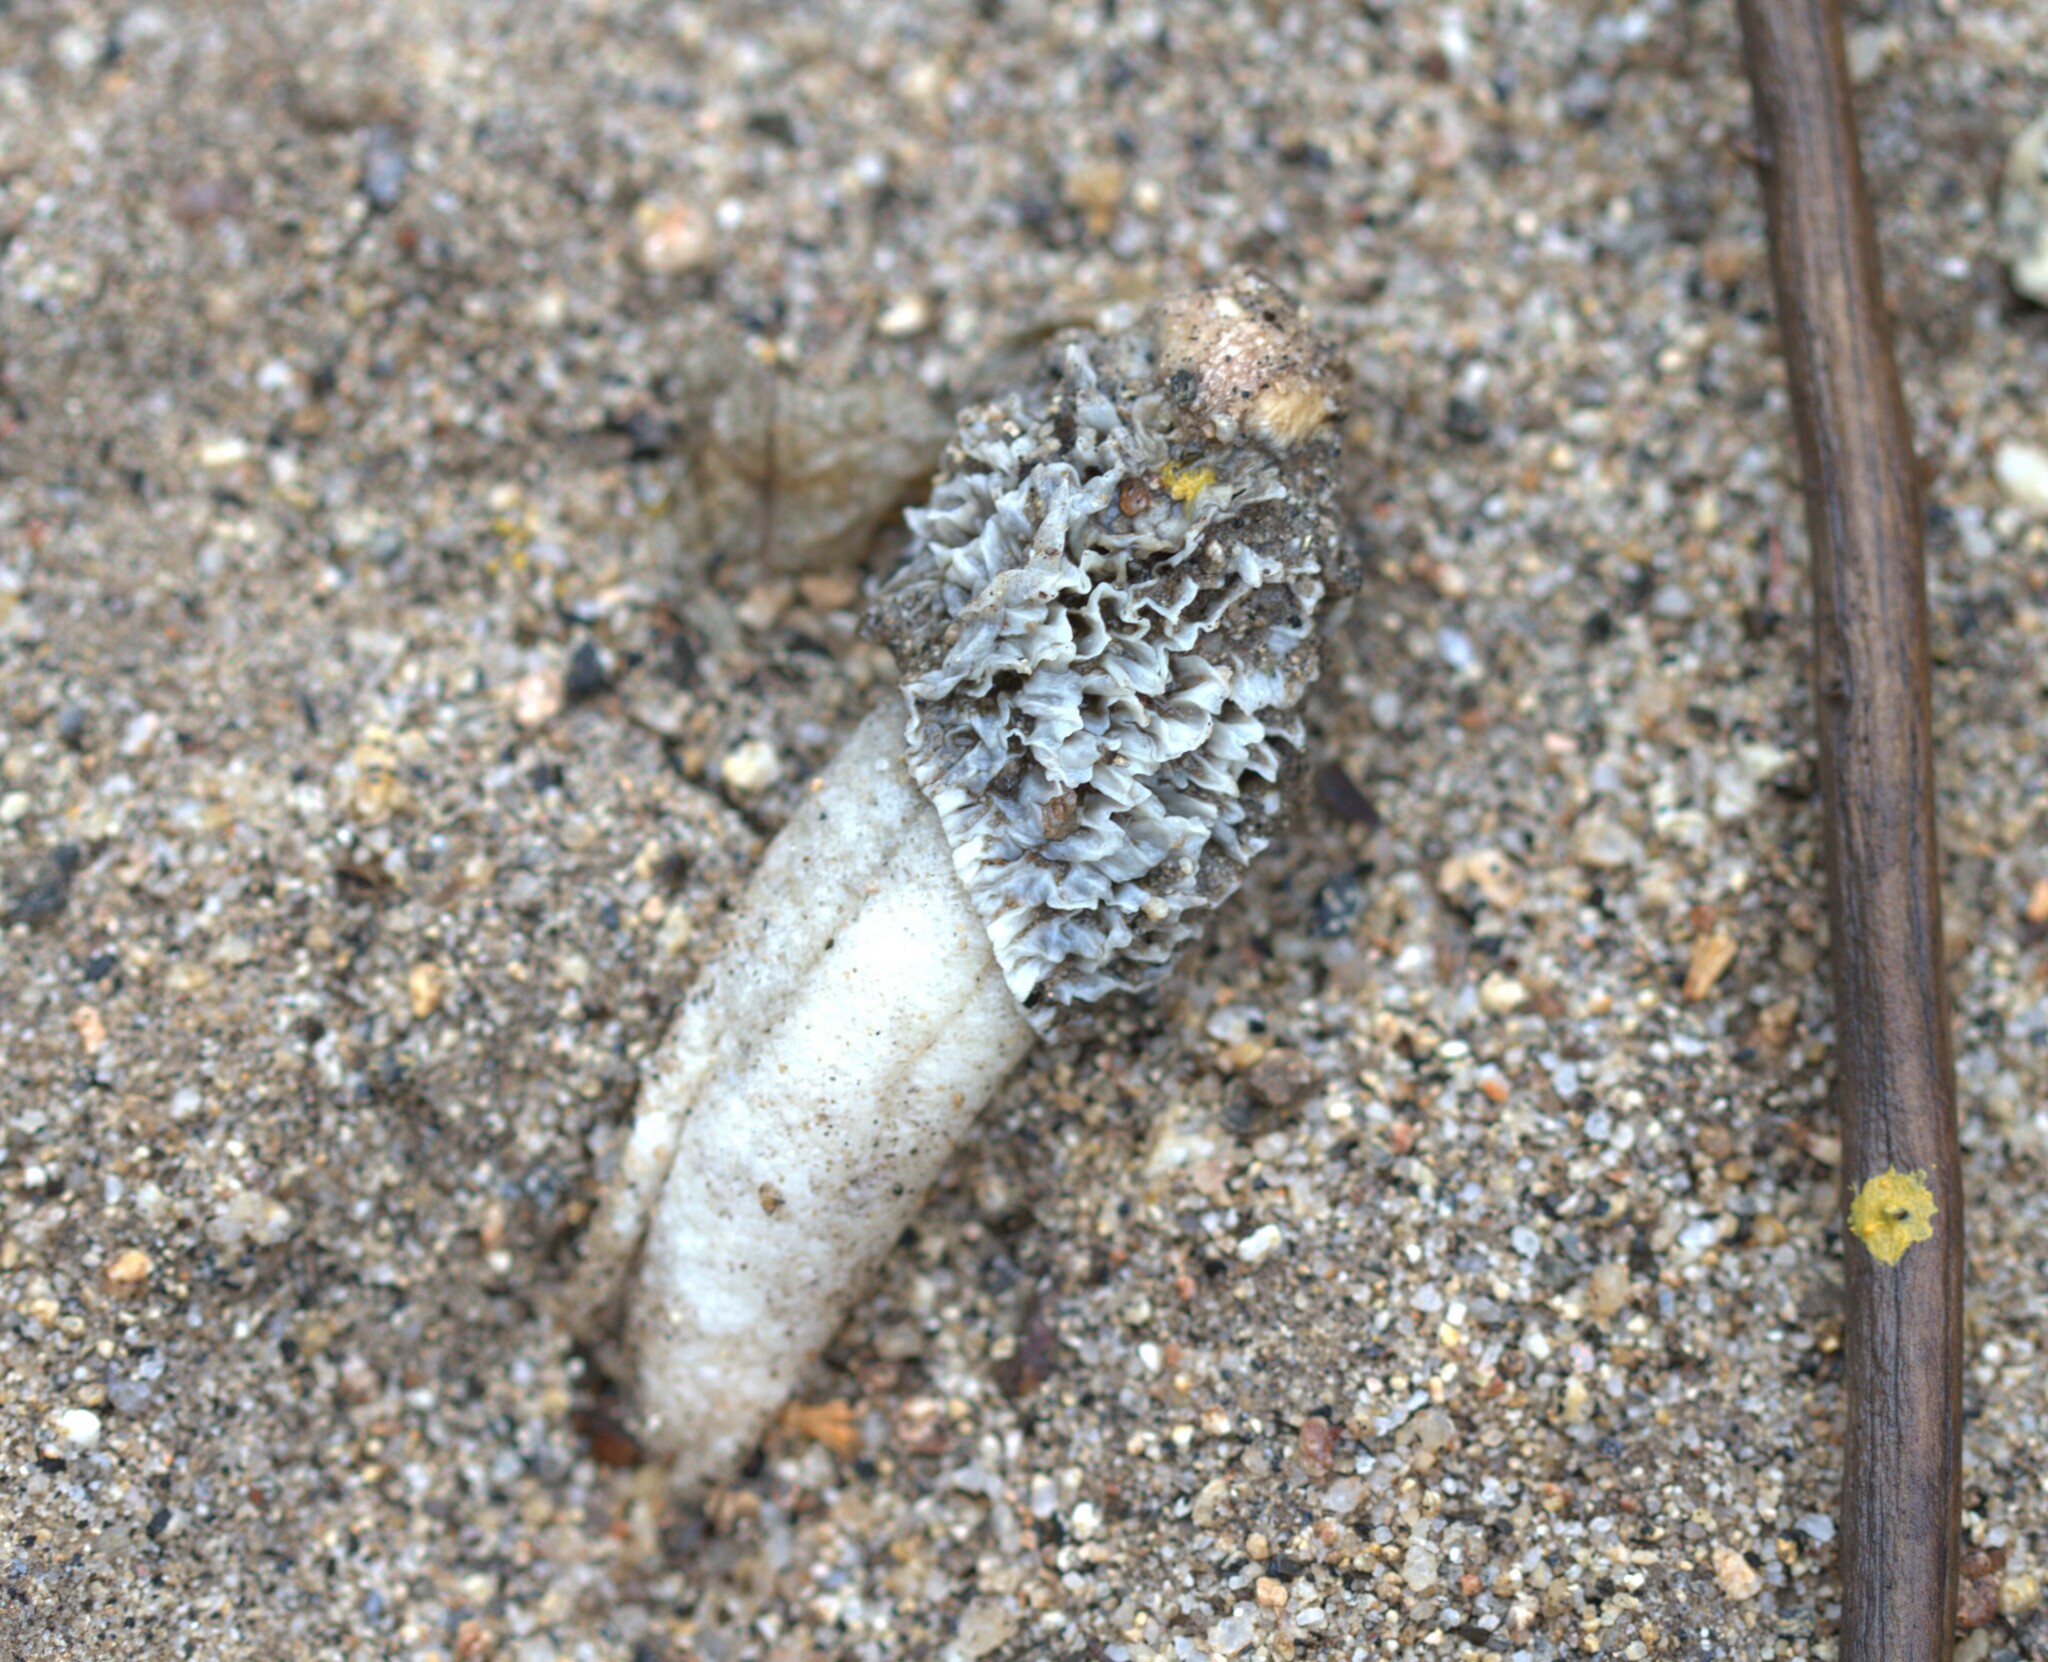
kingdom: Fungi
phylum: Basidiomycota
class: Agaricomycetes
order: Phallales
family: Phallaceae
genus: Phallus
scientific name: Phallus hadriani
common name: Sand stinkhorn
